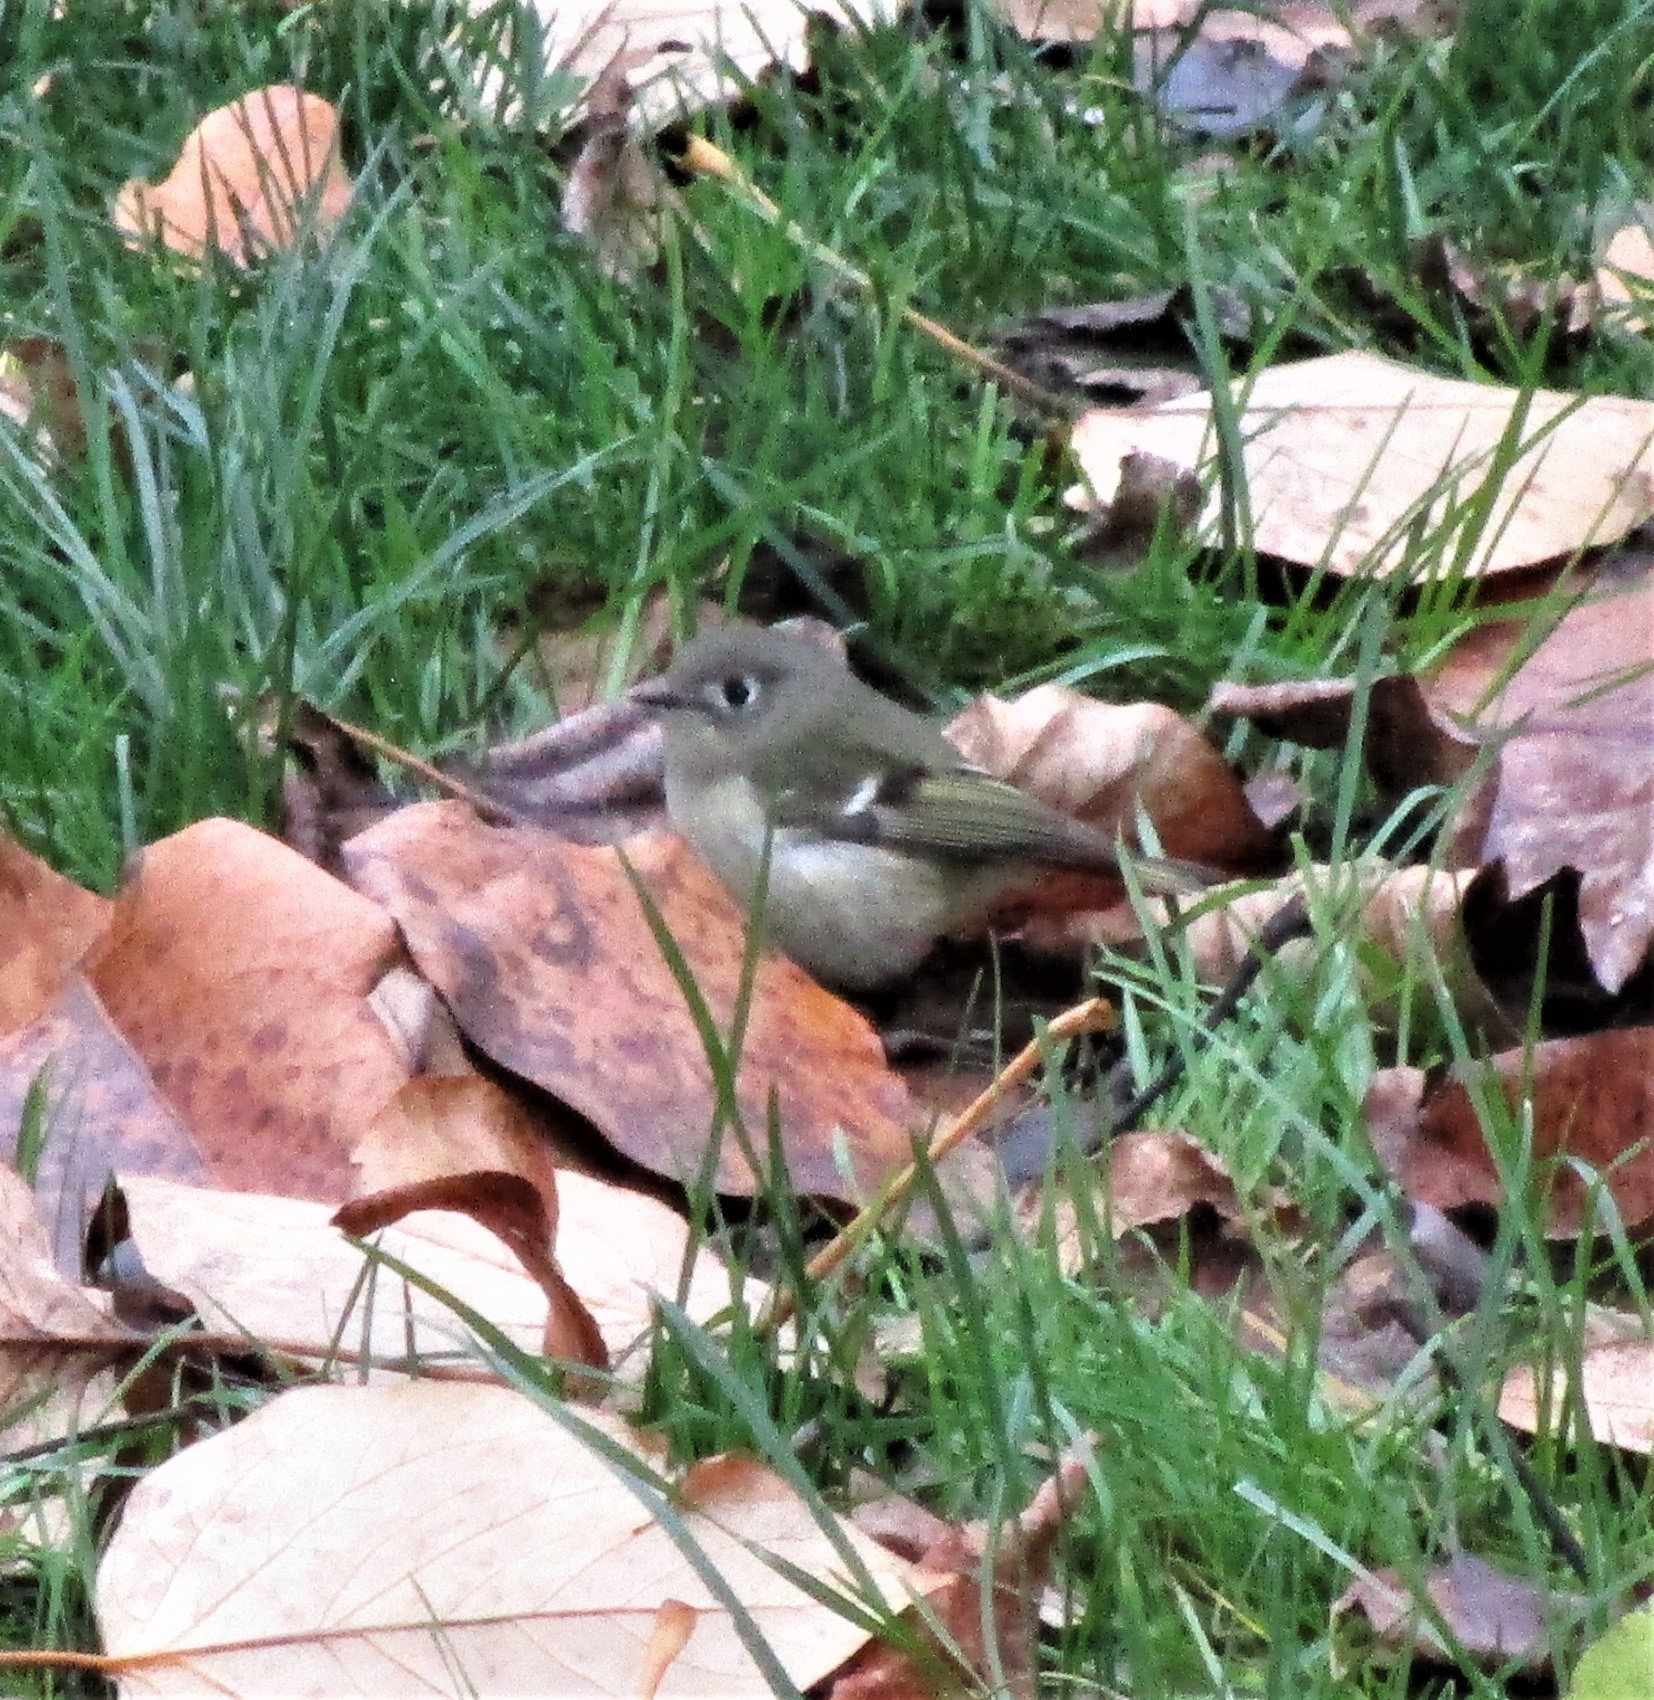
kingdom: Animalia
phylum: Chordata
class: Aves
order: Passeriformes
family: Regulidae
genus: Regulus
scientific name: Regulus calendula
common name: Ruby-crowned kinglet
